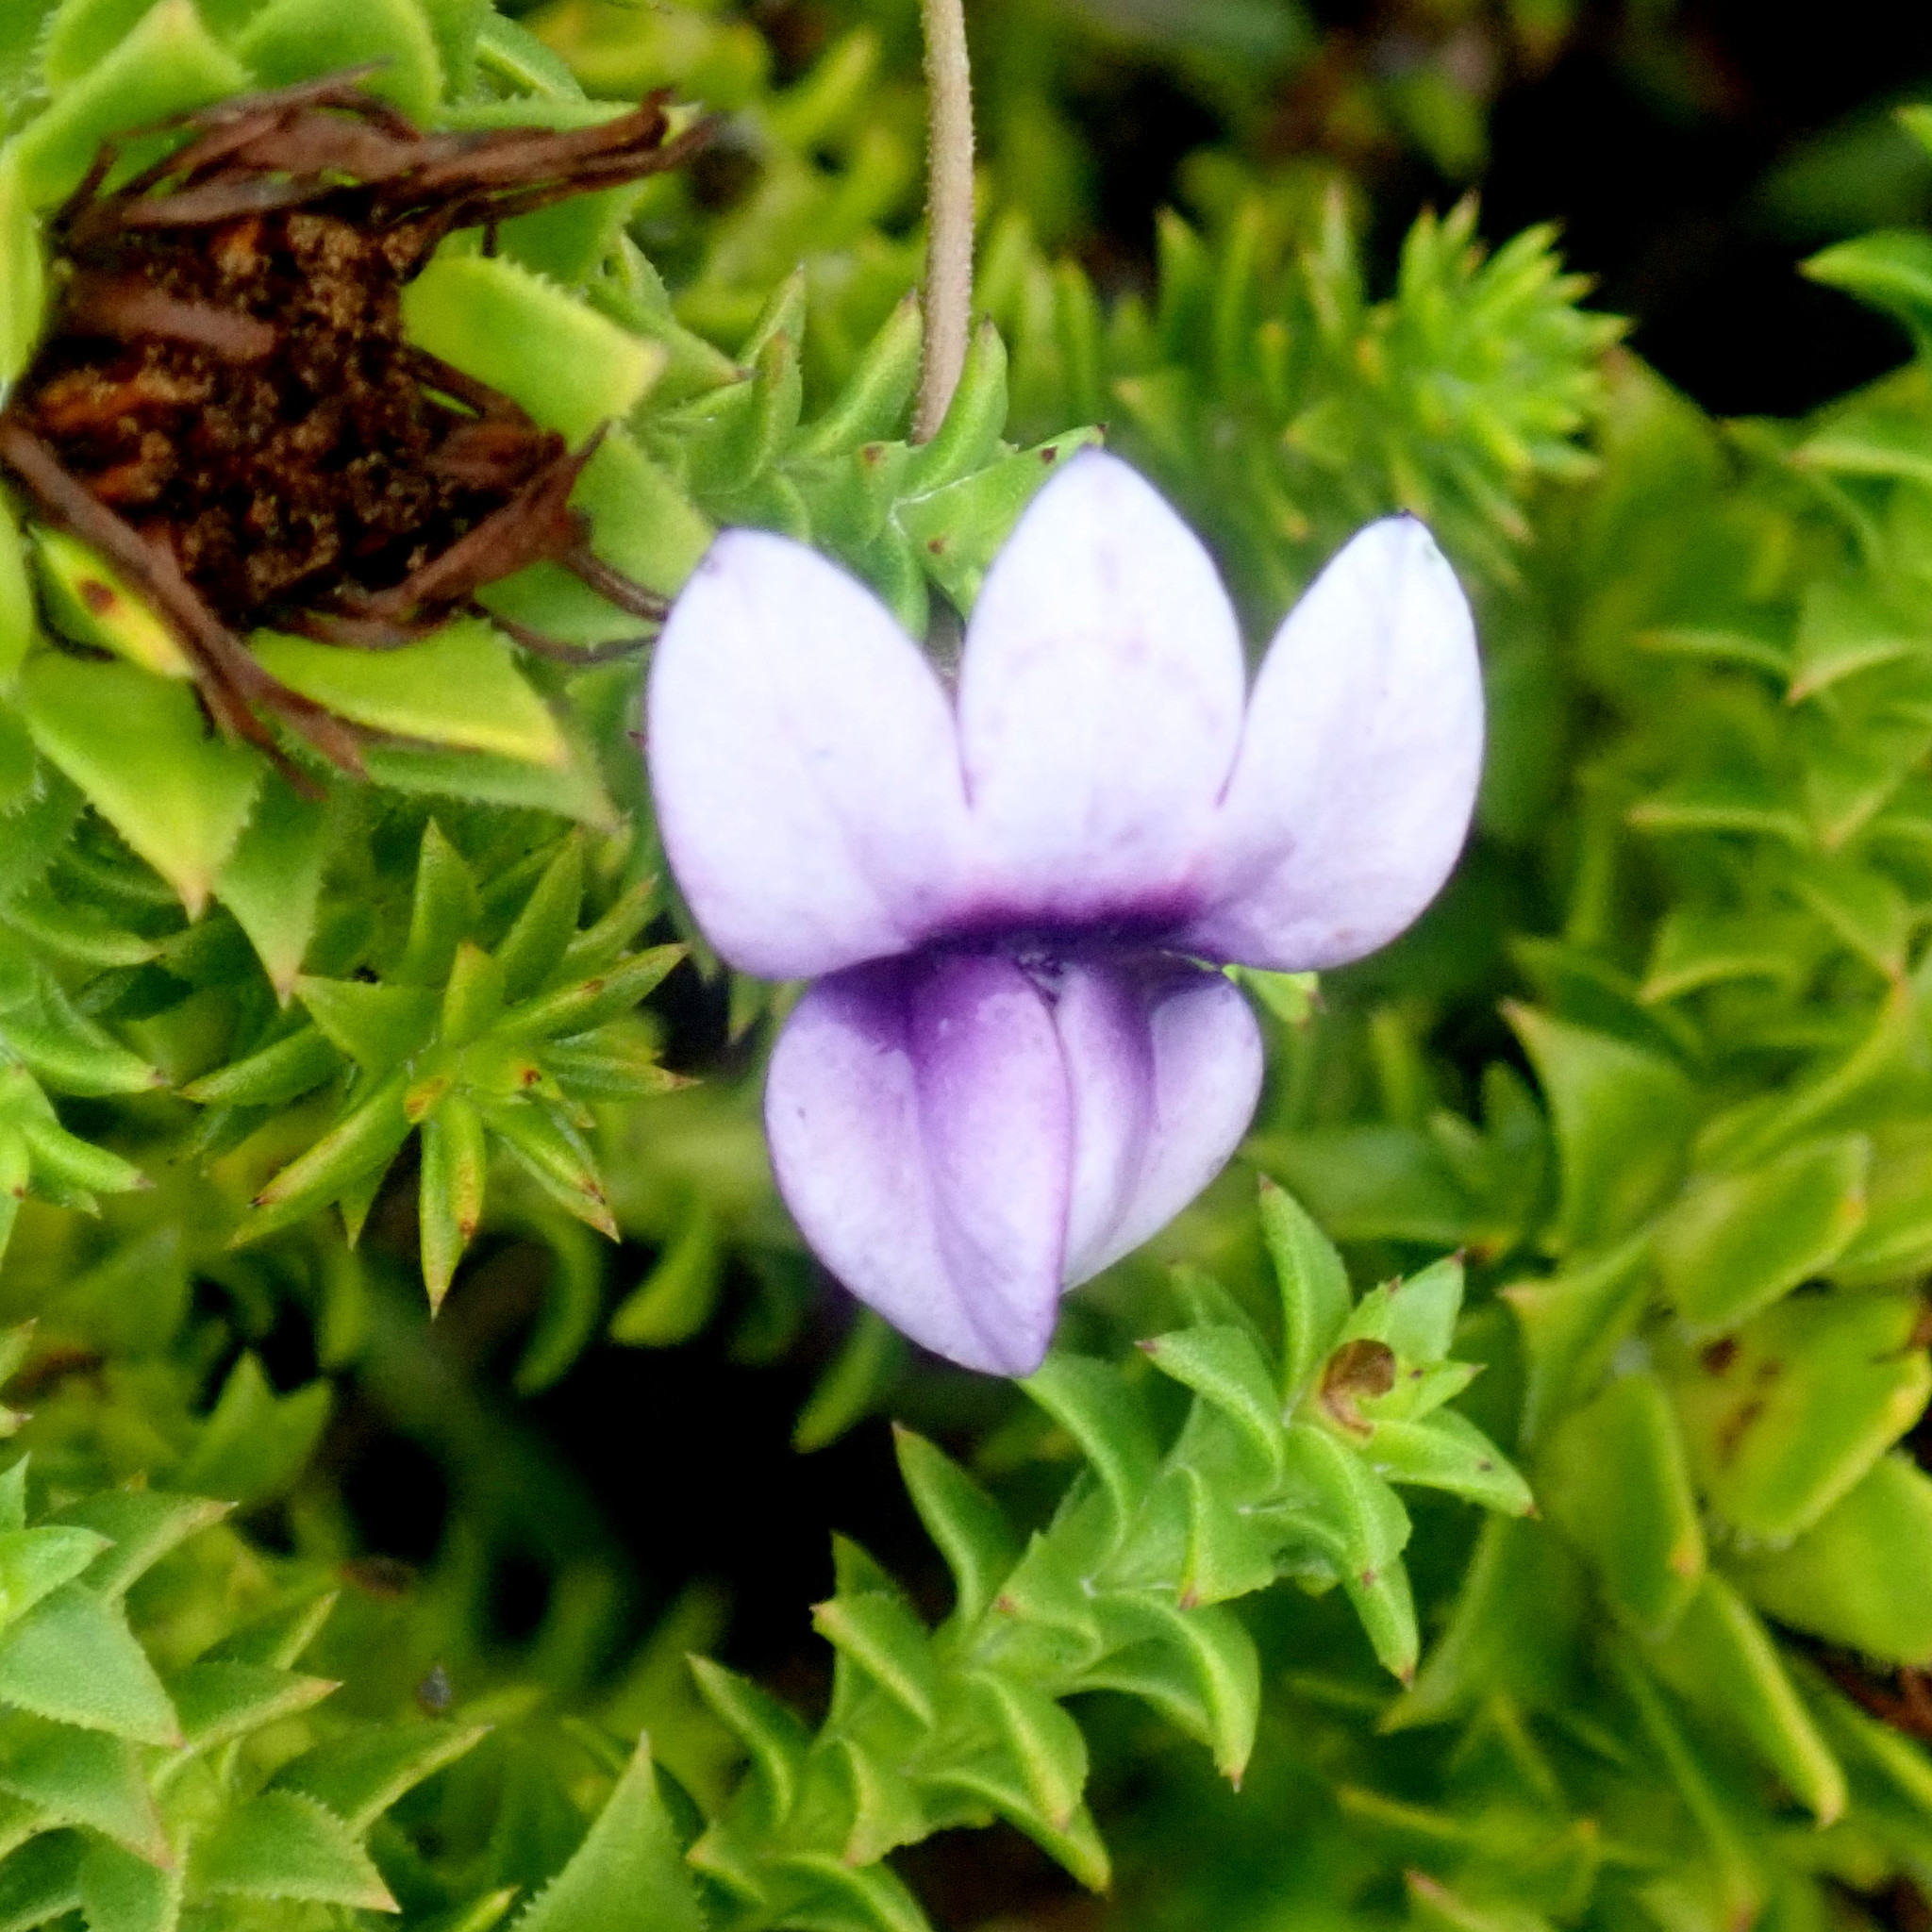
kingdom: Plantae
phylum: Tracheophyta
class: Magnoliopsida
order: Asterales
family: Campanulaceae
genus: Monopsis
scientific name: Monopsis unidentata
